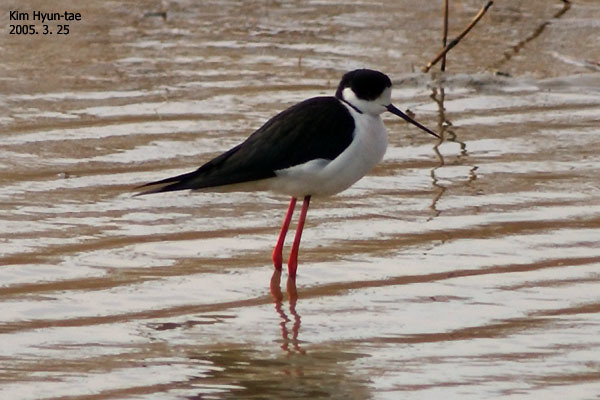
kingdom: Animalia
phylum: Chordata
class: Aves
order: Charadriiformes
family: Recurvirostridae
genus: Himantopus
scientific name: Himantopus himantopus
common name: Black-winged stilt
